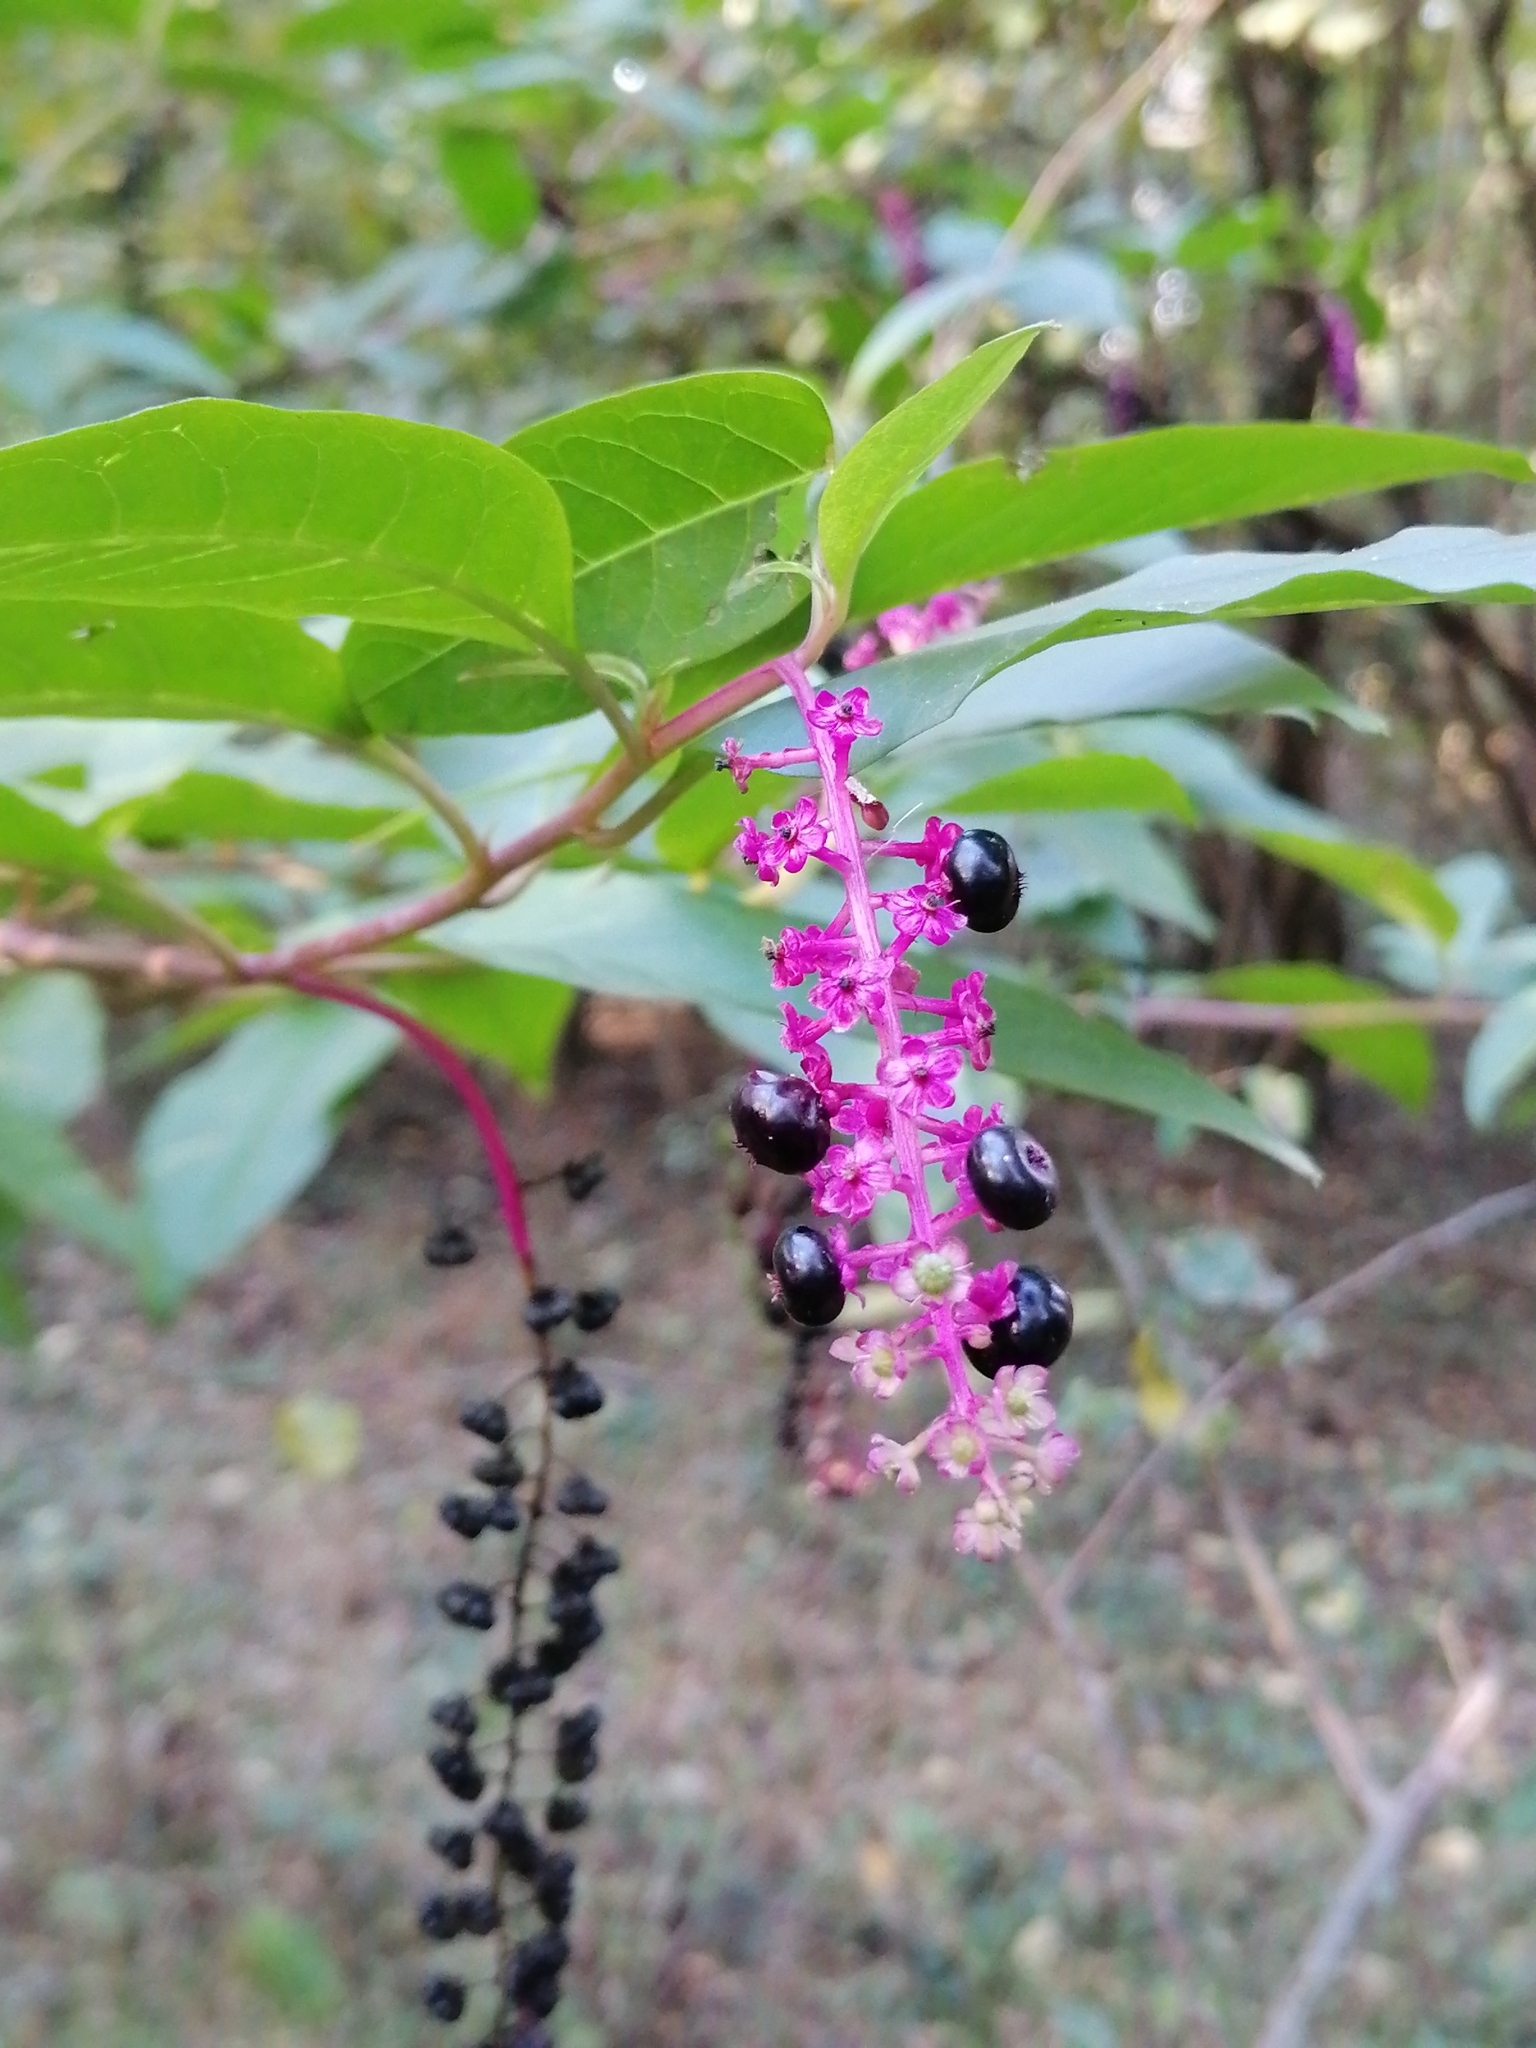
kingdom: Plantae
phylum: Tracheophyta
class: Magnoliopsida
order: Caryophyllales
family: Phytolaccaceae
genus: Phytolacca
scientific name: Phytolacca americana
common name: American pokeweed
